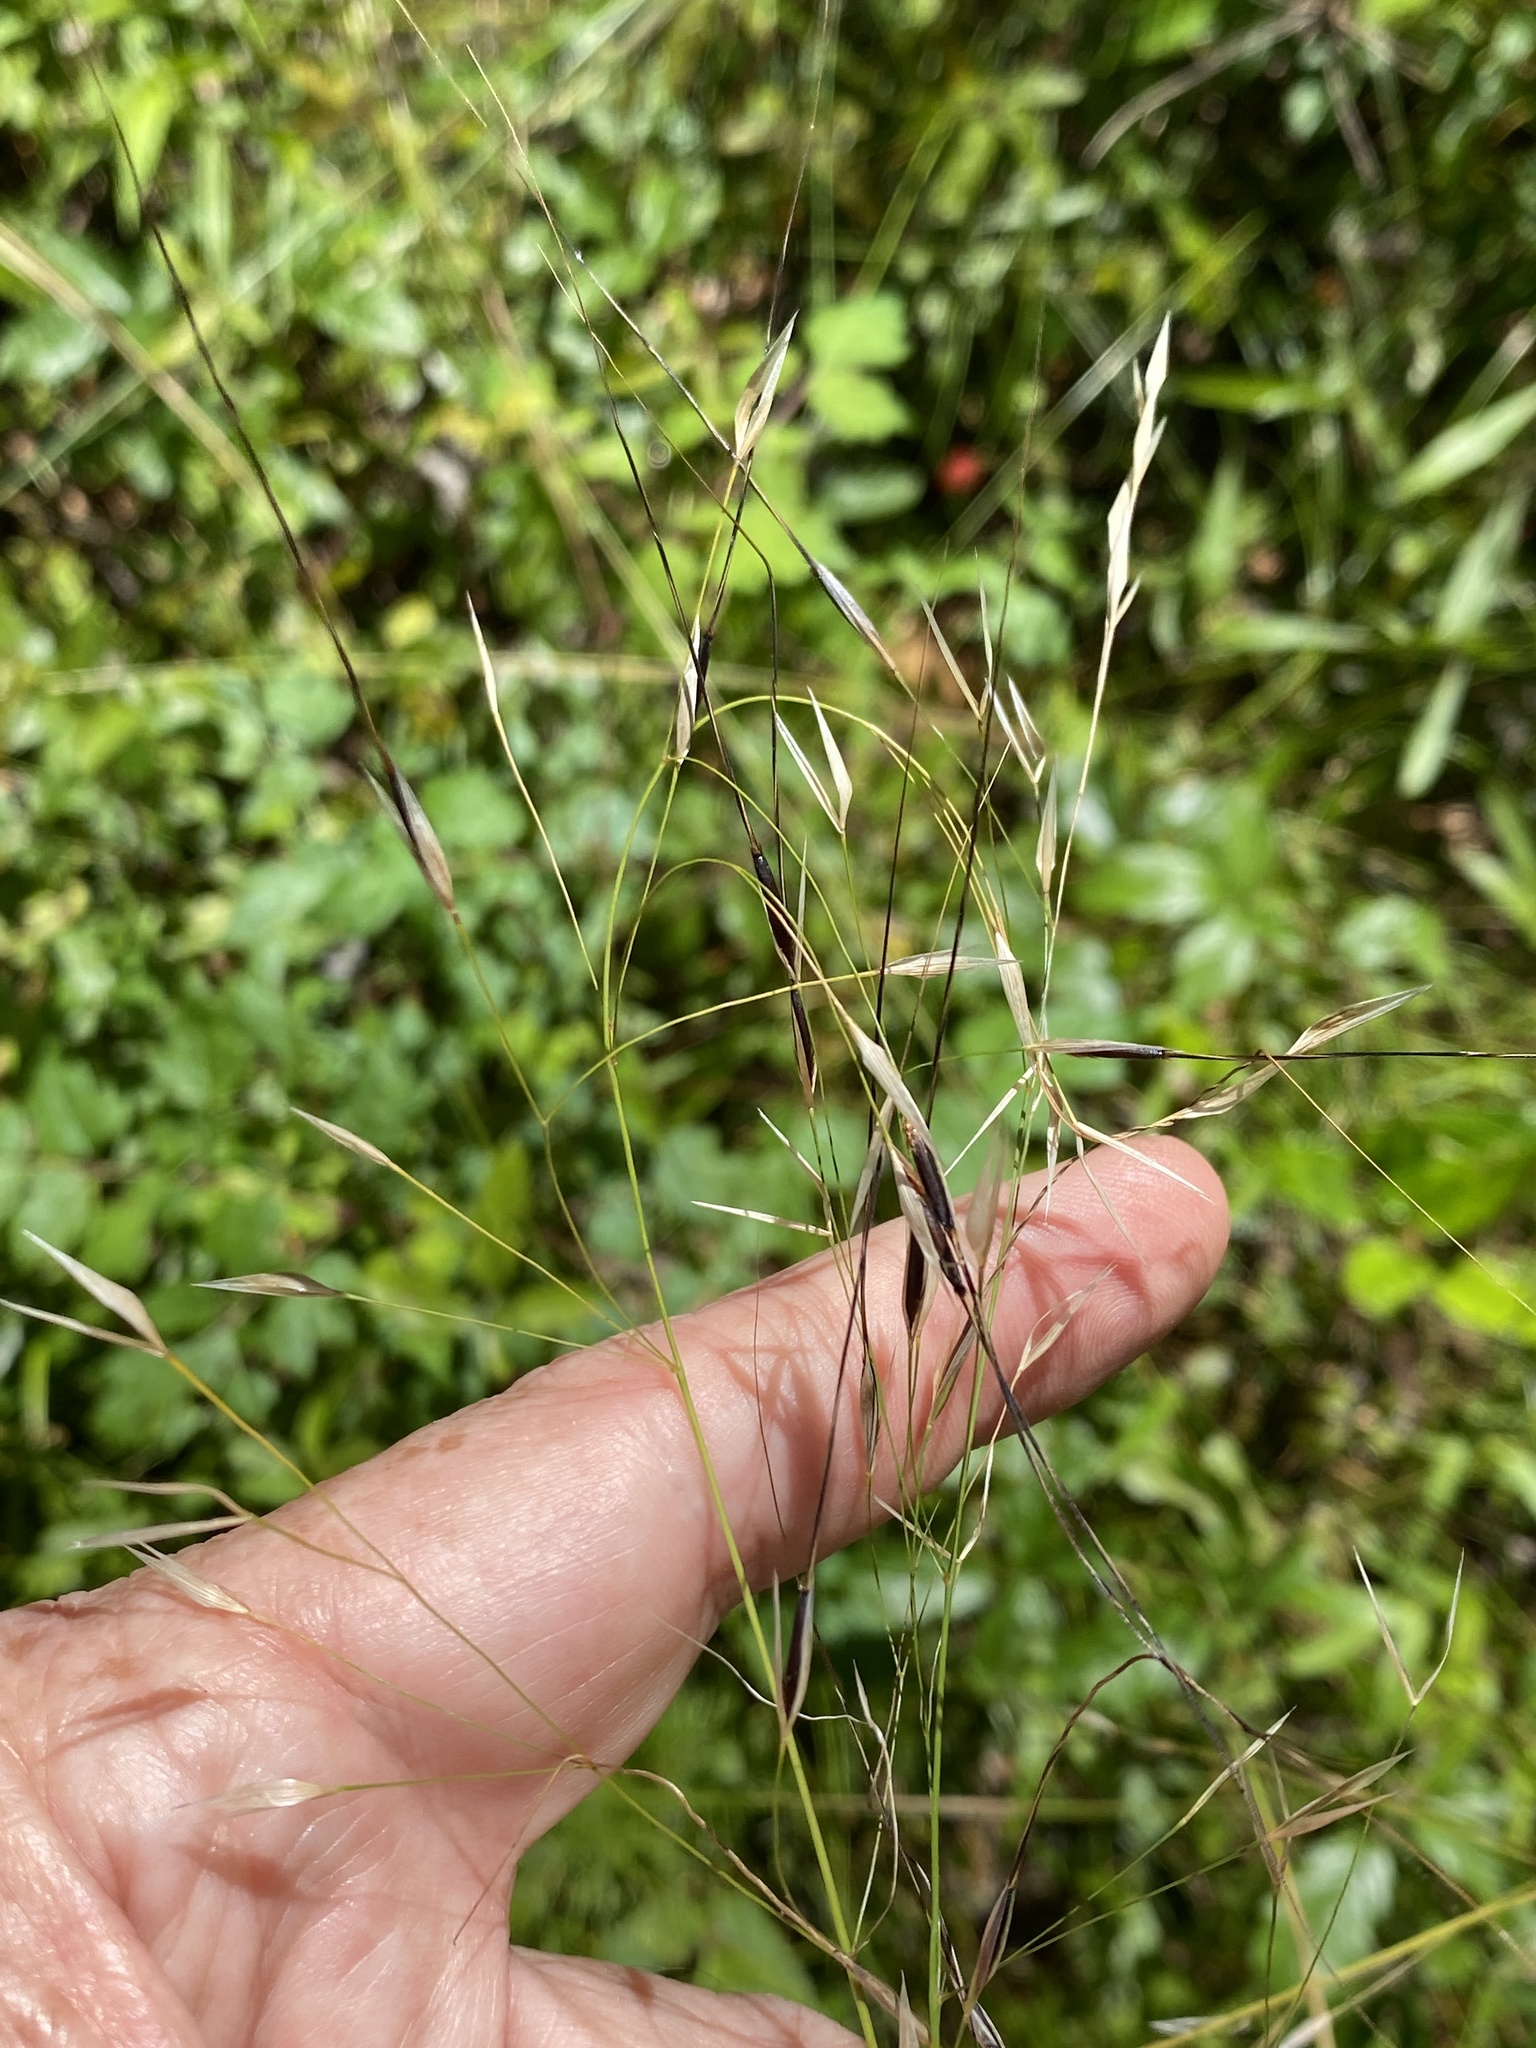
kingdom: Plantae
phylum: Tracheophyta
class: Liliopsida
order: Poales
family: Poaceae
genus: Piptochaetium
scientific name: Piptochaetium avenaceum
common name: Black bunchgrass
